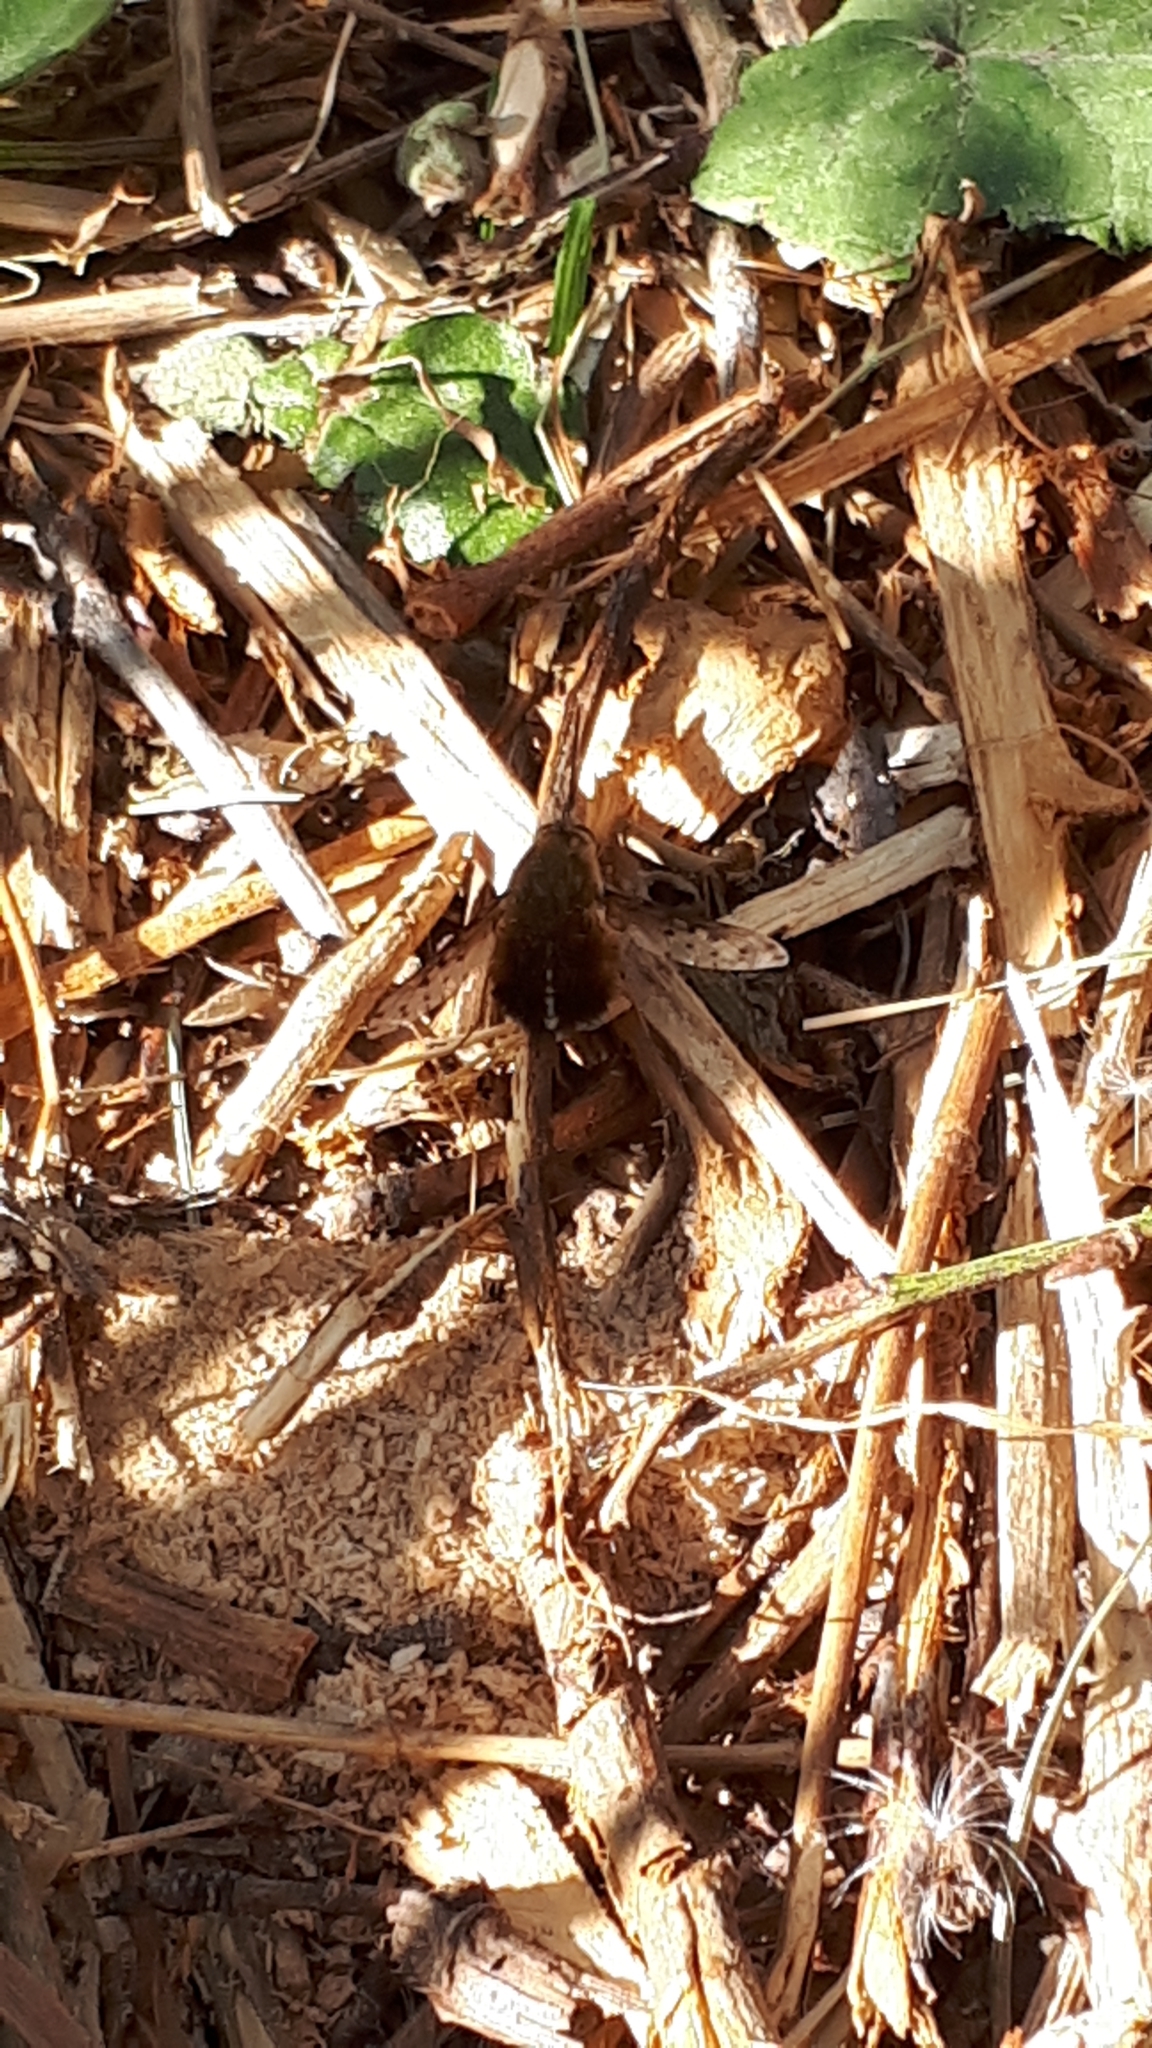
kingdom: Animalia
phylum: Arthropoda
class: Insecta
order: Diptera
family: Bombyliidae
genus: Bombylius
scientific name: Bombylius discolor
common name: Dotted bee-fly
